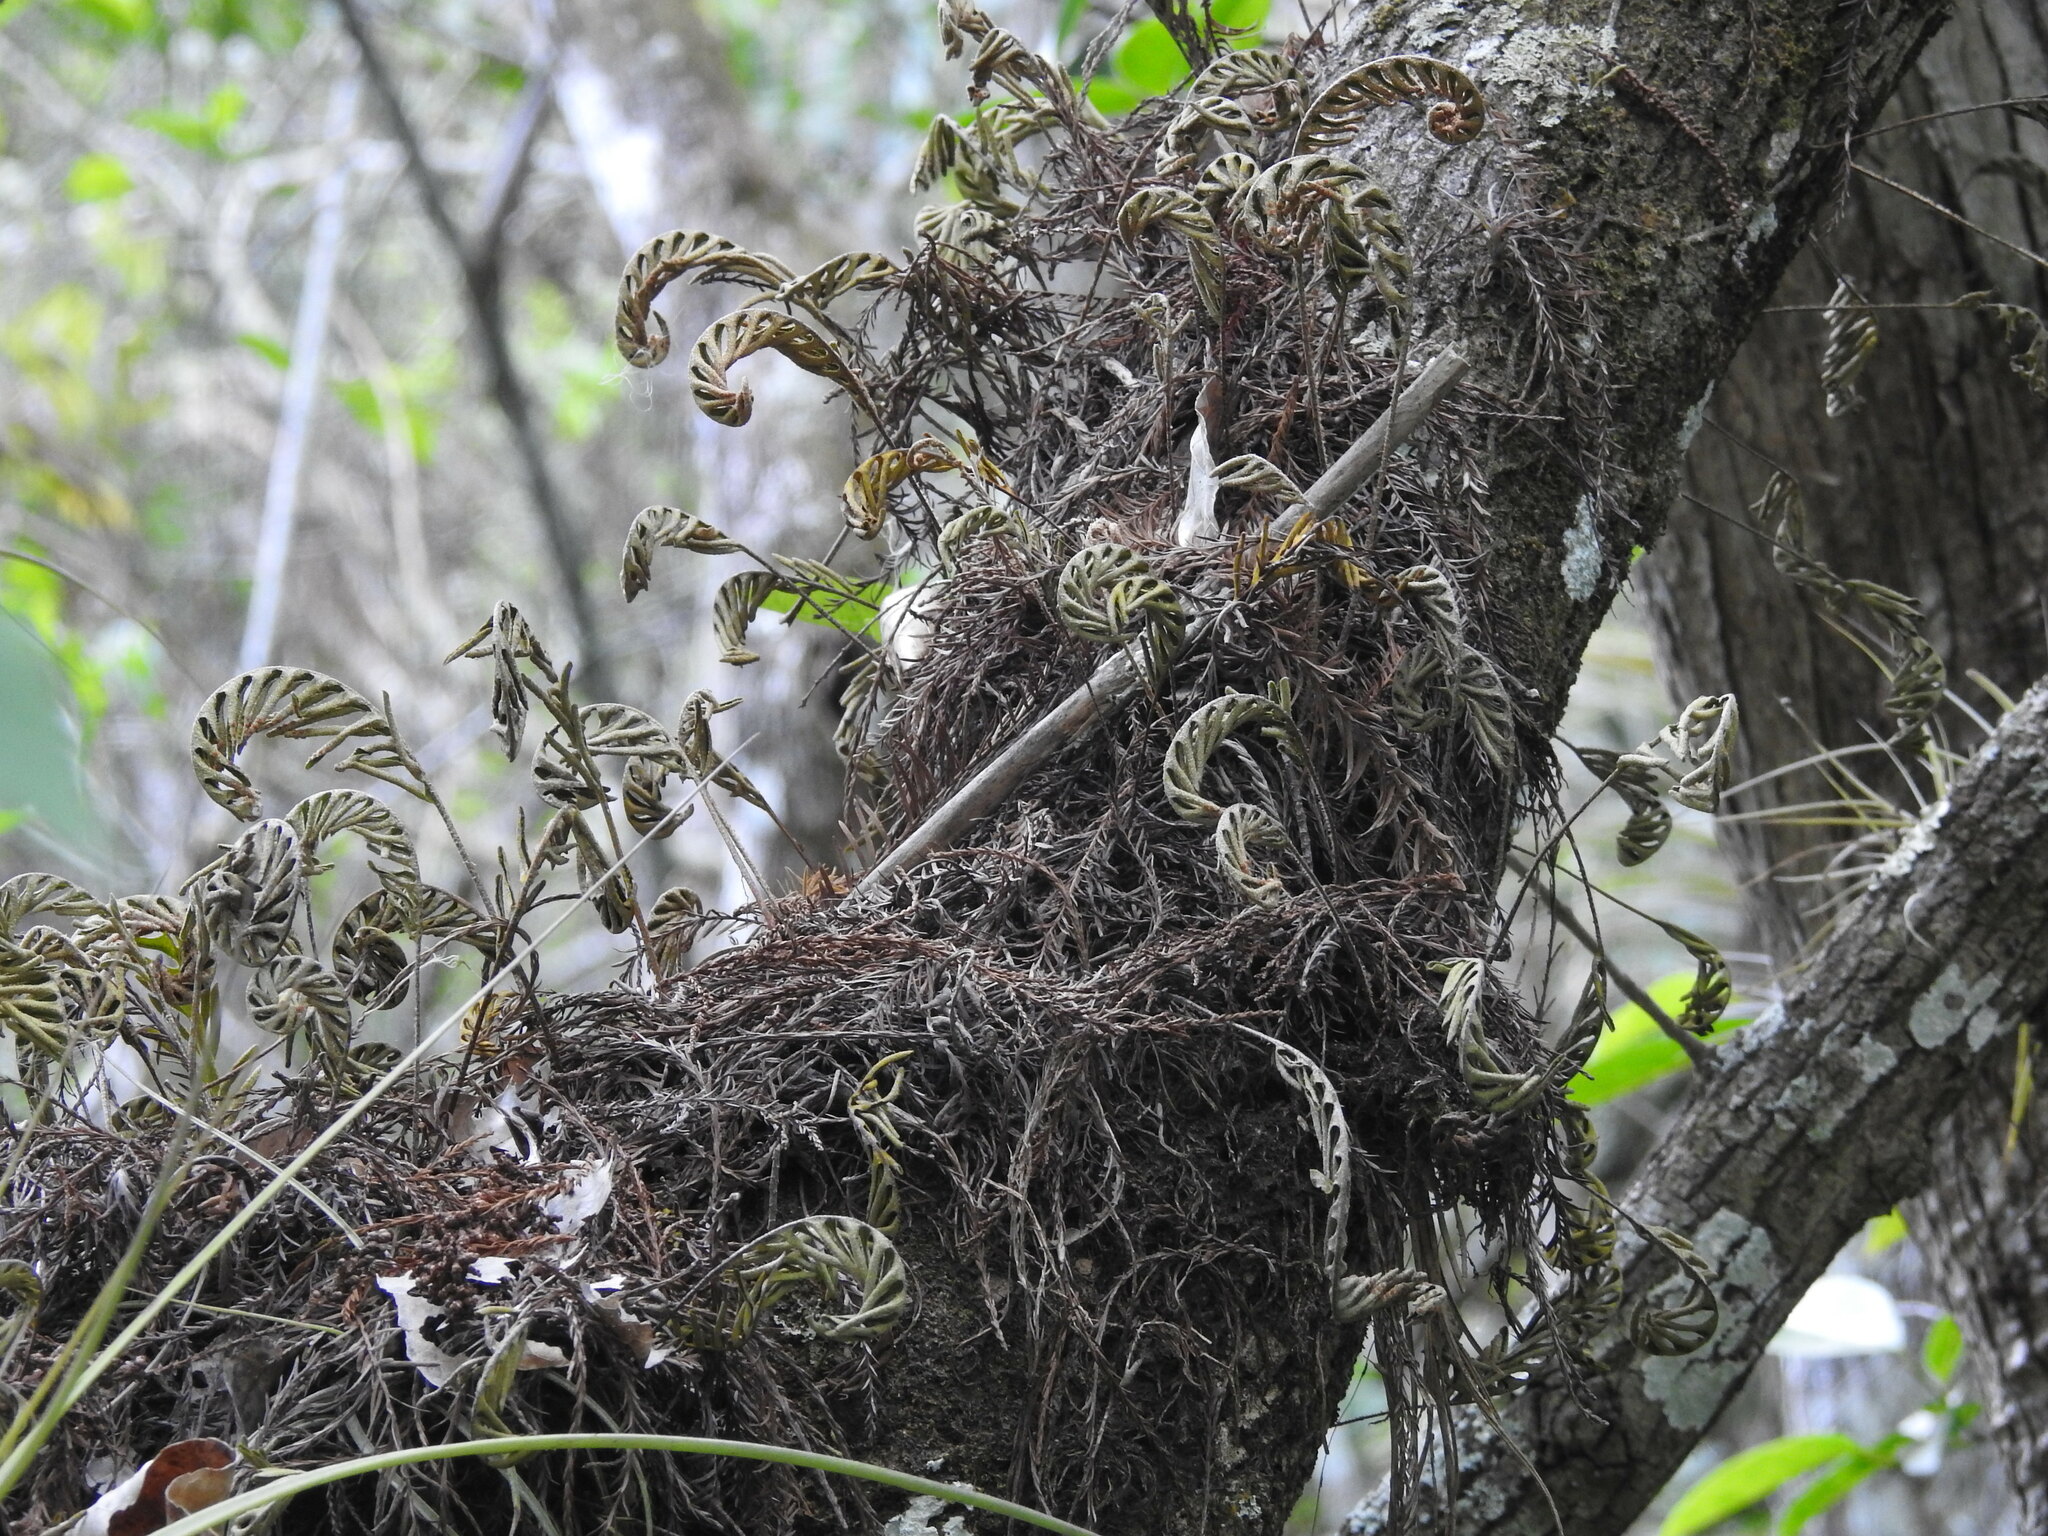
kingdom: Plantae
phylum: Tracheophyta
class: Polypodiopsida
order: Polypodiales
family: Polypodiaceae
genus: Pleopeltis
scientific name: Pleopeltis michauxiana
